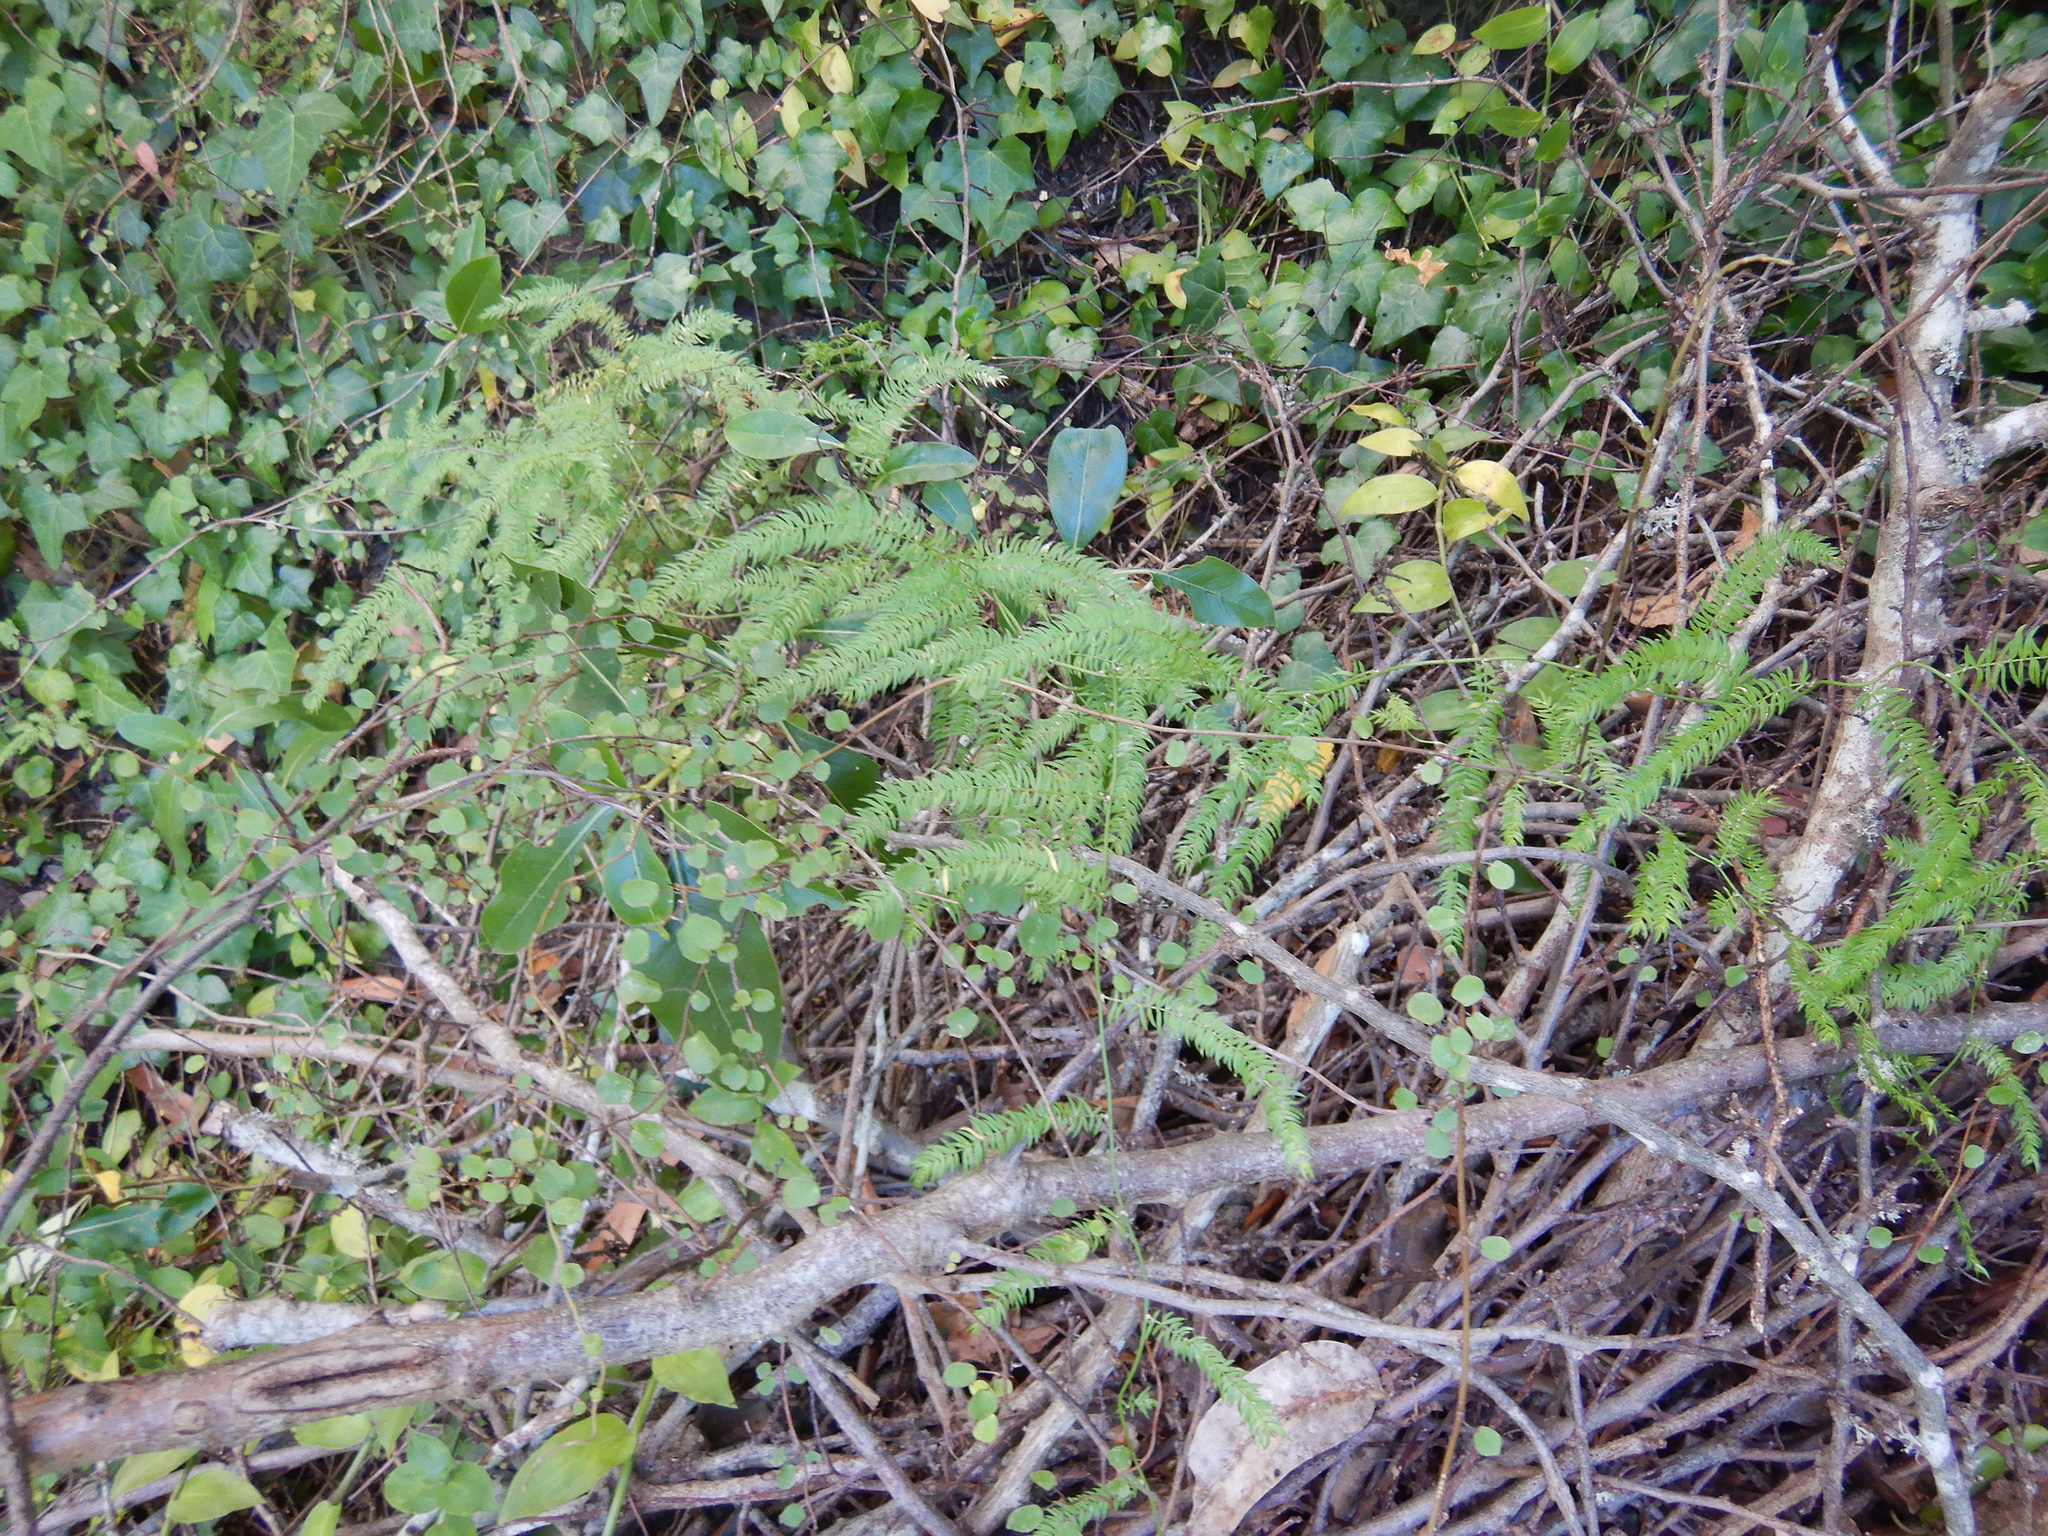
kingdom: Plantae
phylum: Tracheophyta
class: Liliopsida
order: Asparagales
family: Asparagaceae
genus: Asparagus
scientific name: Asparagus scandens
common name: Asparagus-fern
